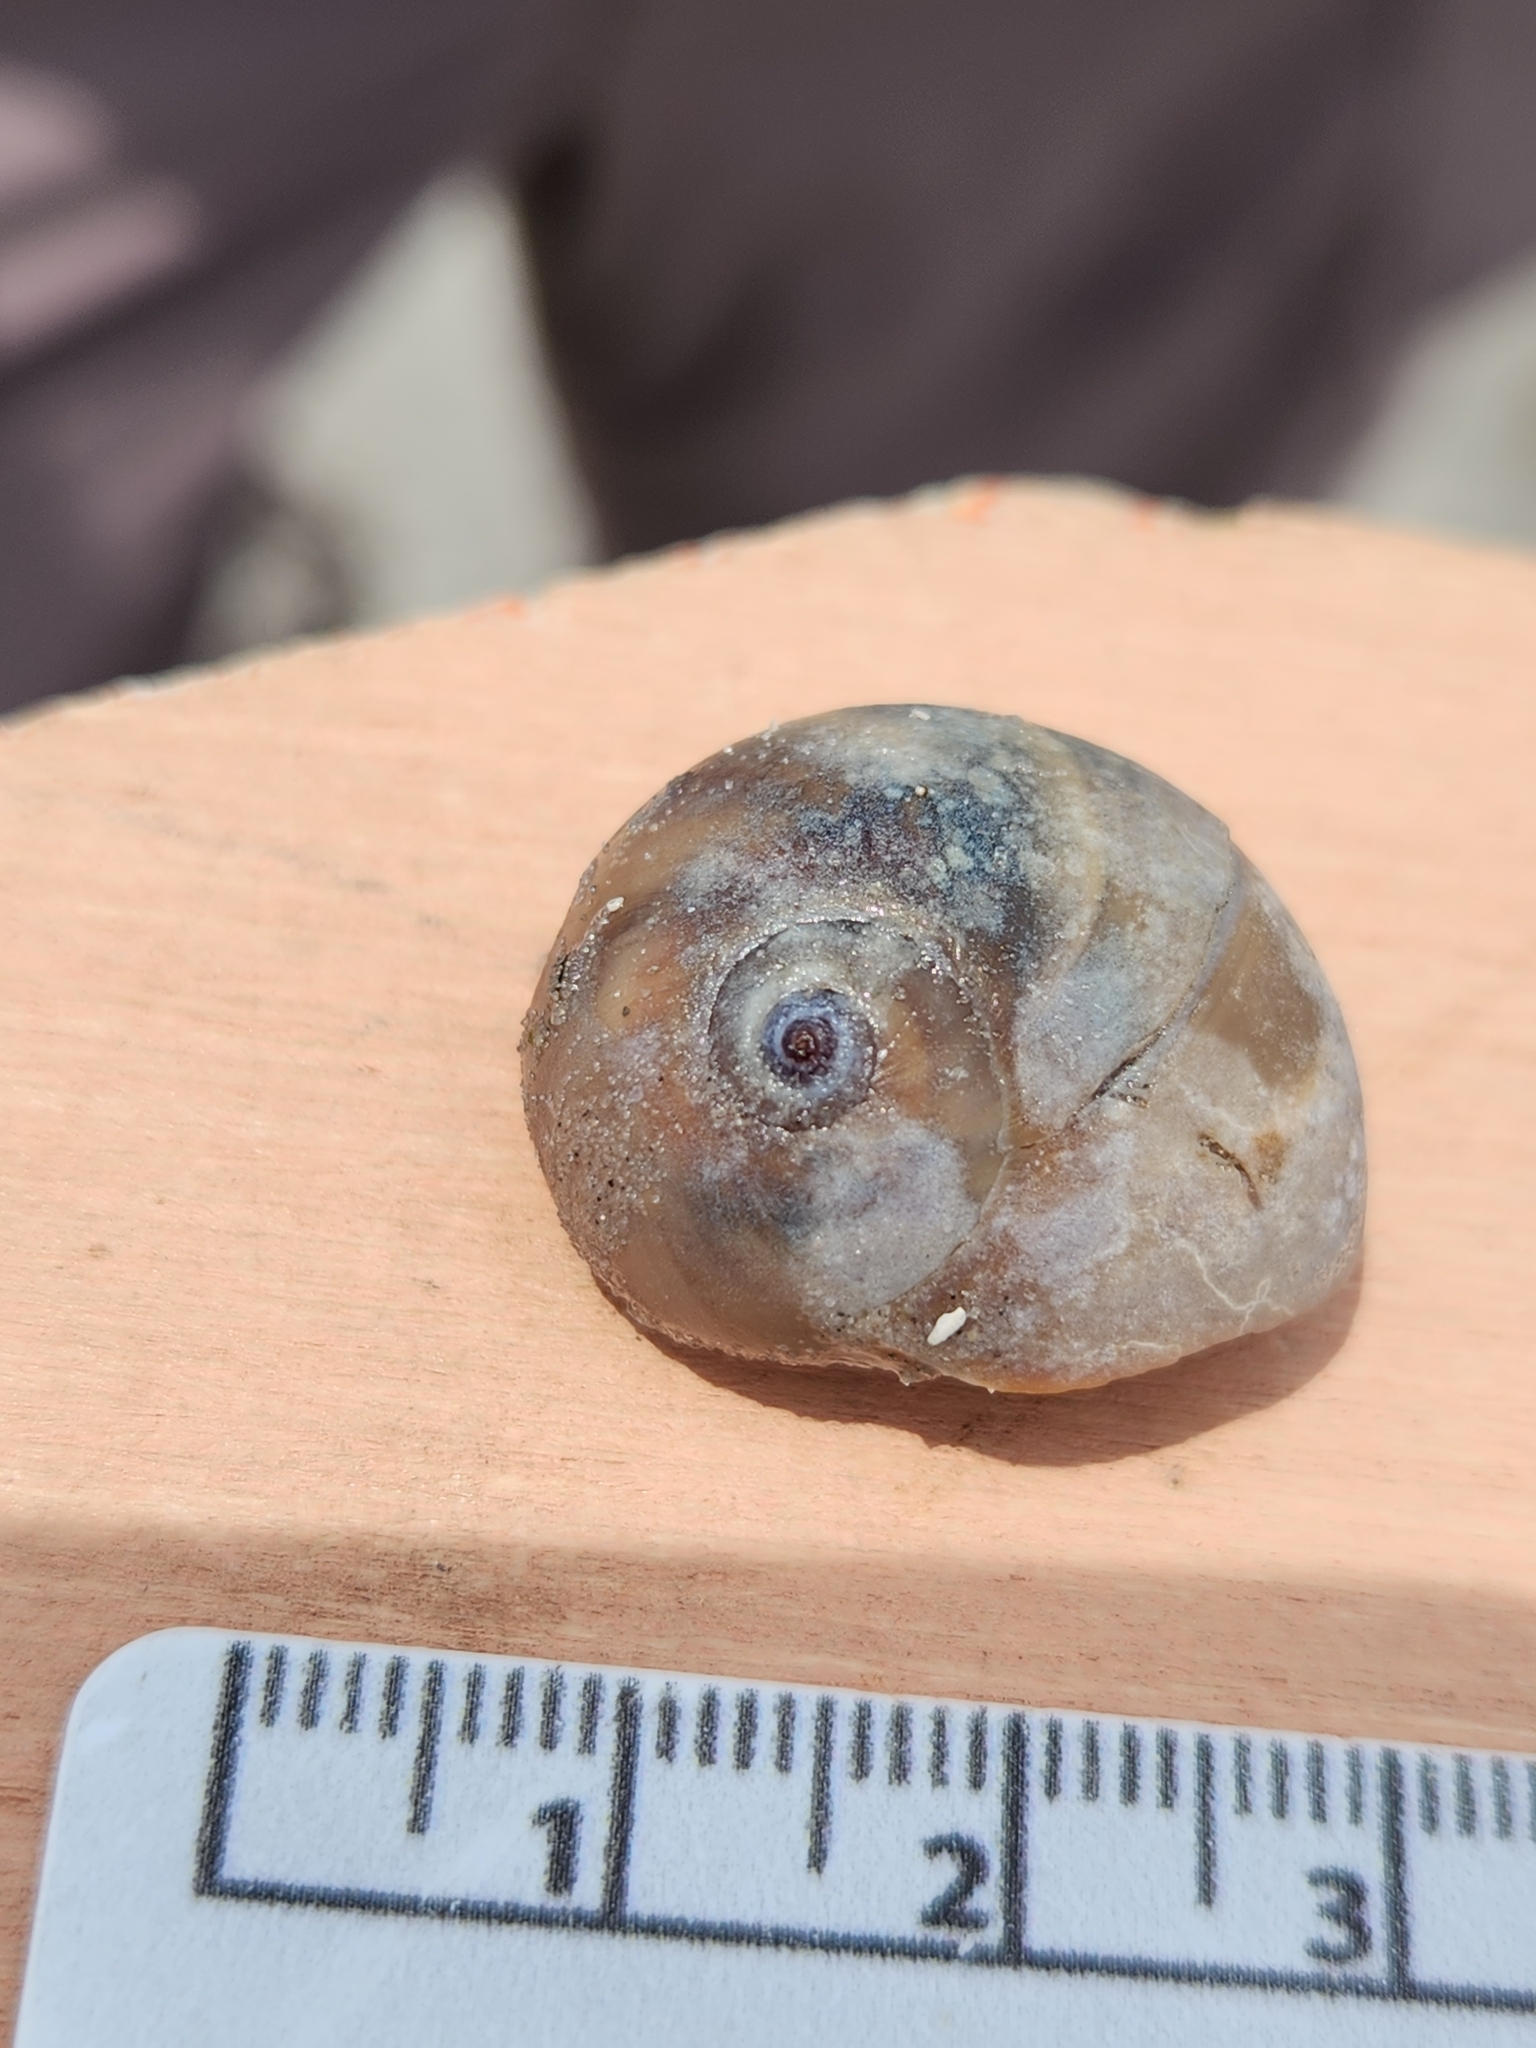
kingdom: Animalia
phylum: Mollusca
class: Gastropoda
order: Littorinimorpha
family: Naticidae
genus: Neverita
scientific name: Neverita delessertiana
